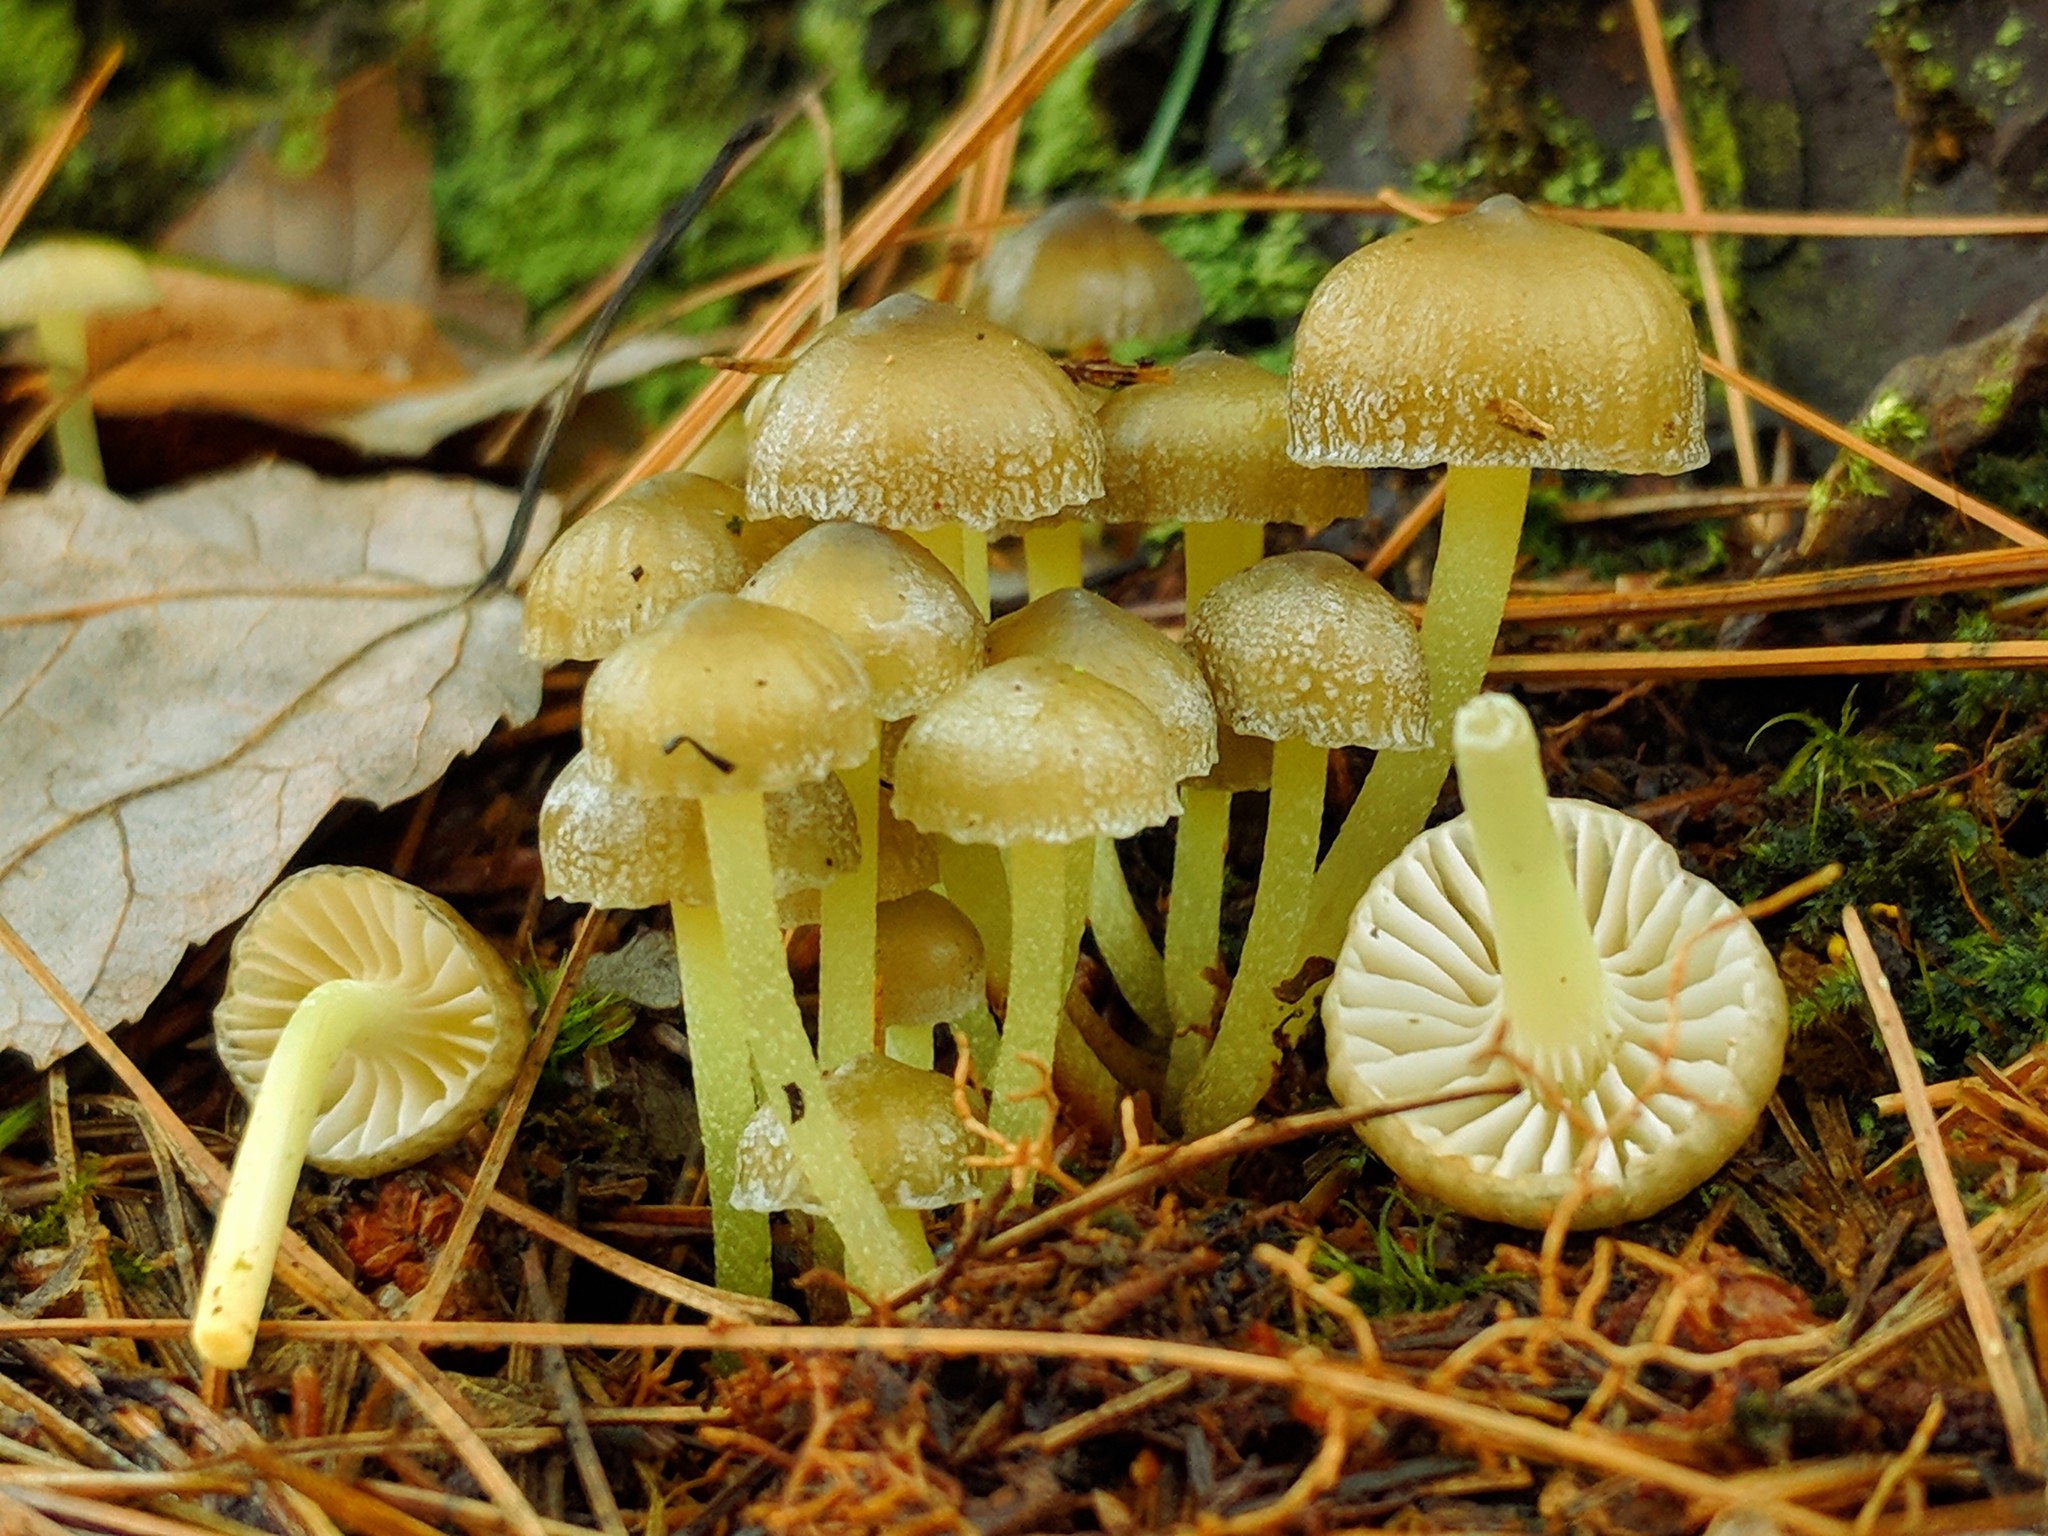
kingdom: Fungi
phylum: Basidiomycota
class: Agaricomycetes
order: Agaricales
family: Mycenaceae
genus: Mycena
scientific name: Mycena epipterygia
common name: Yellowleg bonnet
